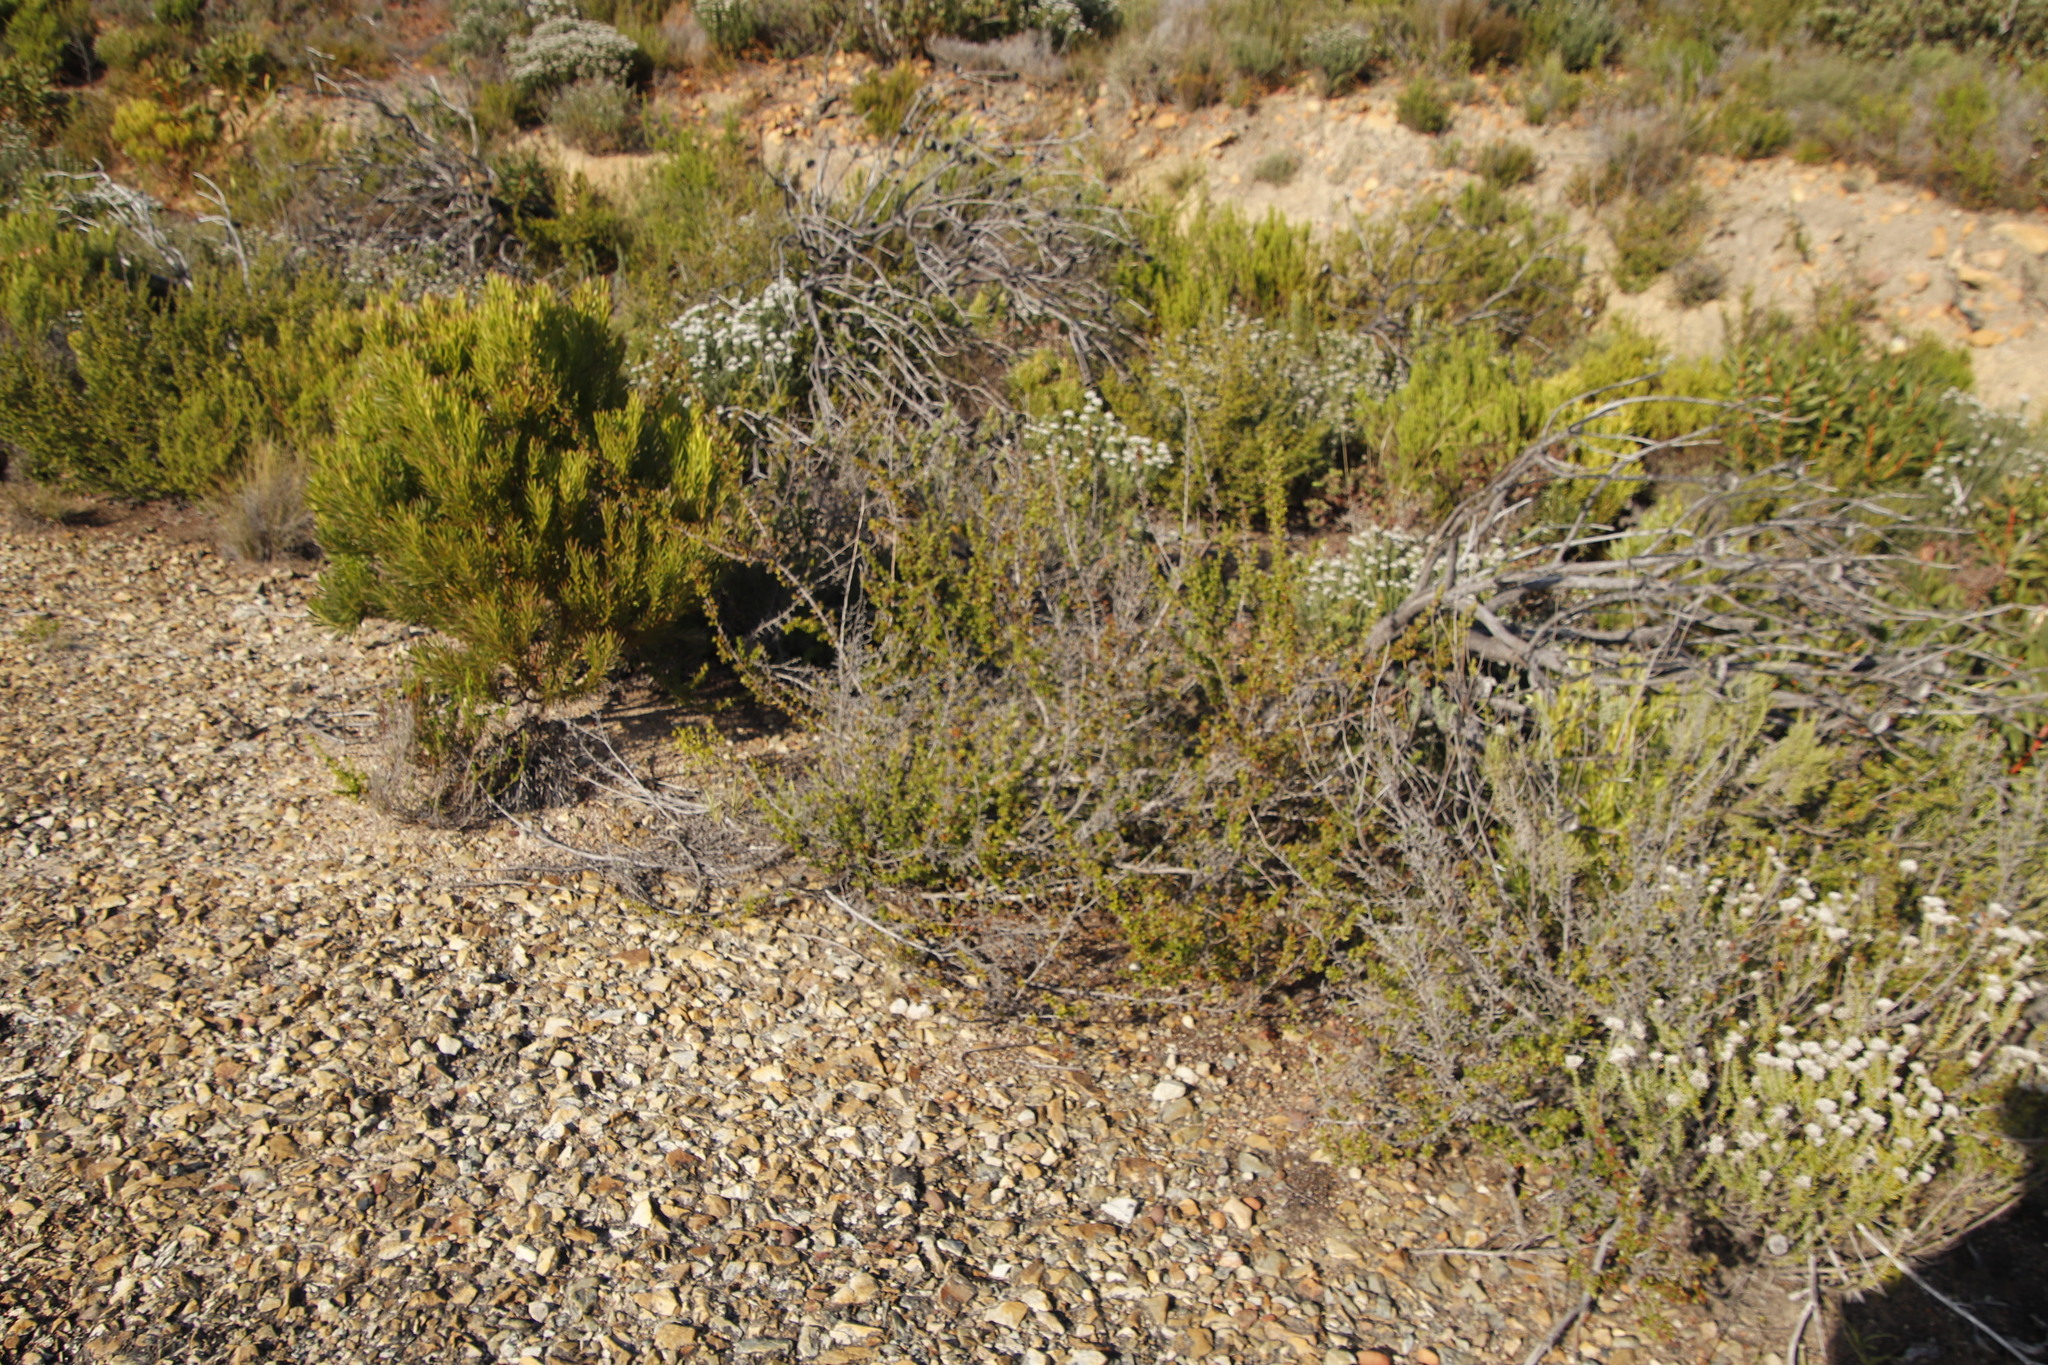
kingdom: Plantae
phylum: Tracheophyta
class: Magnoliopsida
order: Rosales
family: Rosaceae
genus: Cliffortia
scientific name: Cliffortia ruscifolia
